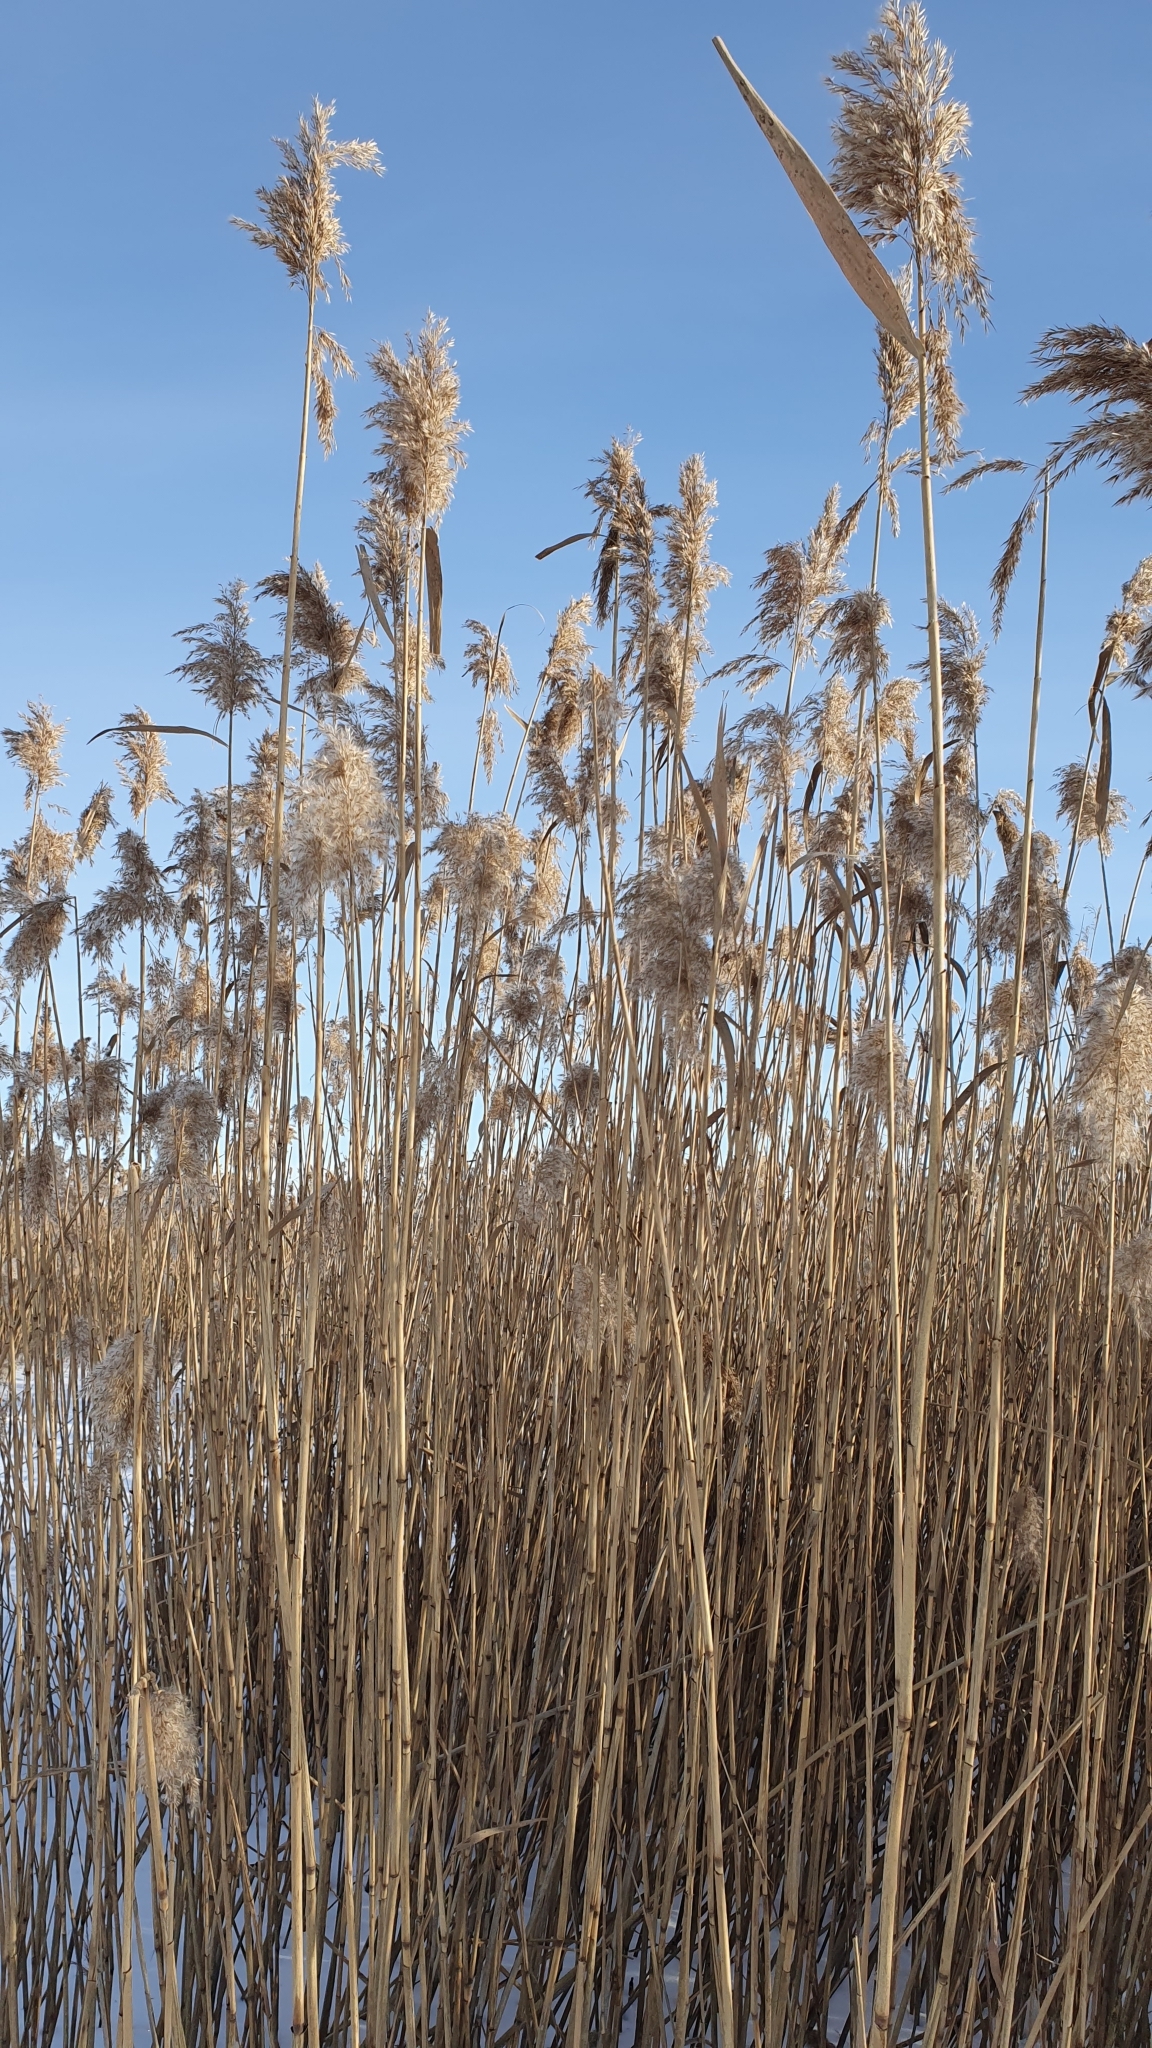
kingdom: Plantae
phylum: Tracheophyta
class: Liliopsida
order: Poales
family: Poaceae
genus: Phragmites
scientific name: Phragmites australis
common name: Common reed
